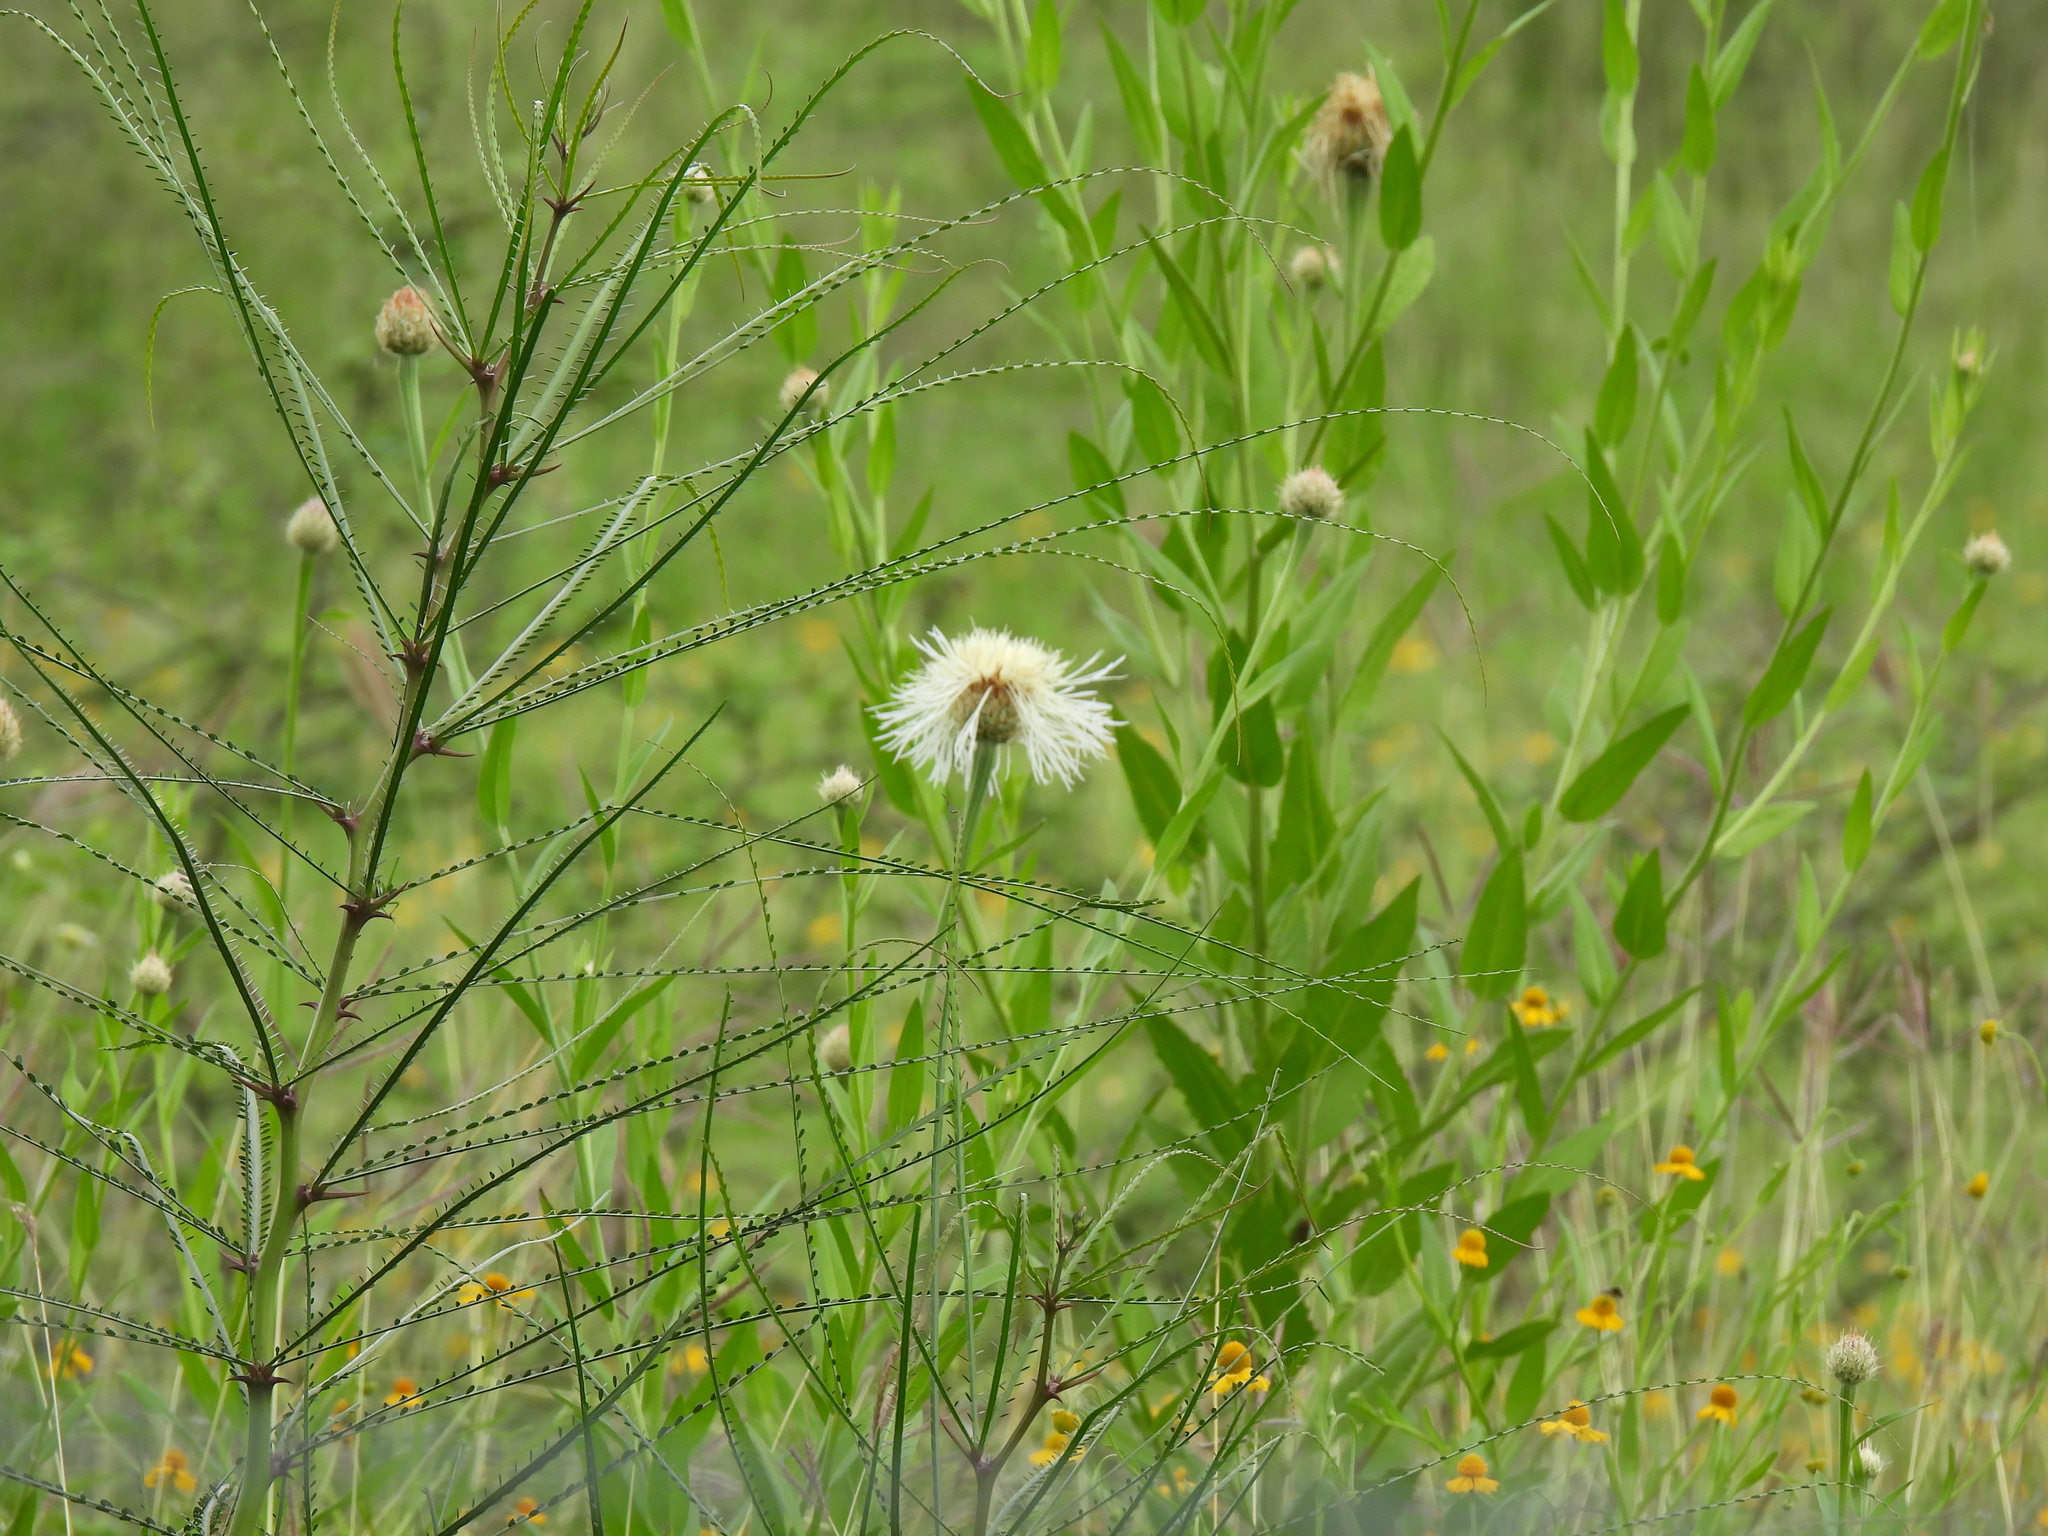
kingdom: Plantae
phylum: Tracheophyta
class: Magnoliopsida
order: Asterales
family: Asteraceae
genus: Plectocephalus
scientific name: Plectocephalus americanus
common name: American basket-flower
